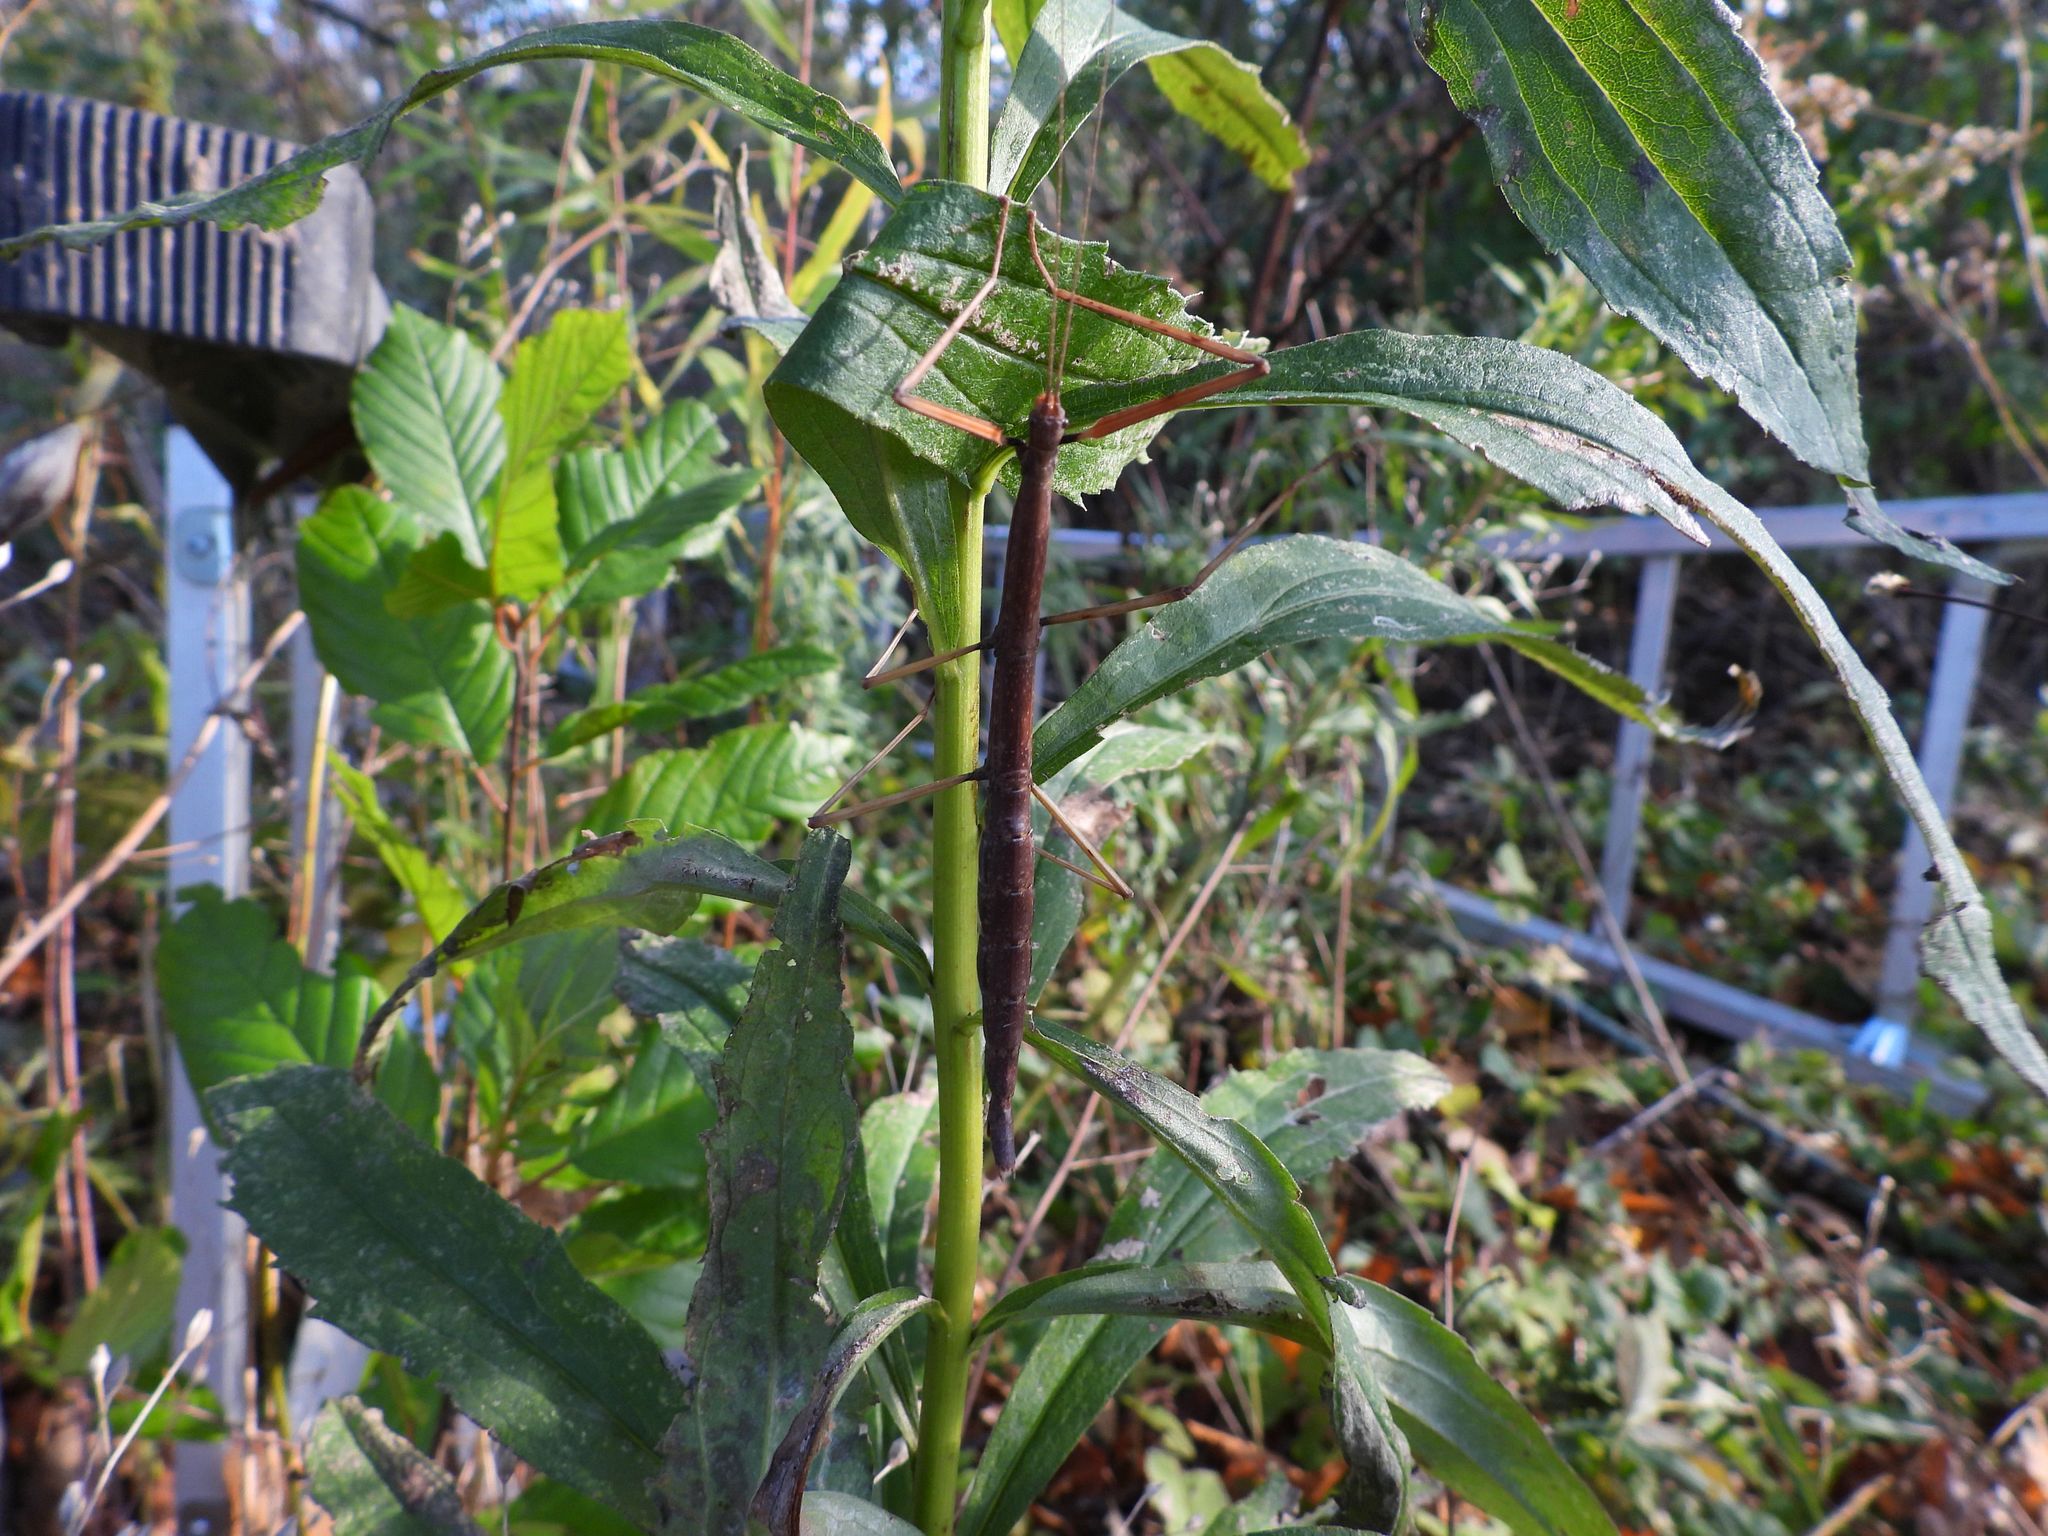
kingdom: Animalia
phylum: Arthropoda
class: Insecta
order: Phasmida
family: Diapheromeridae
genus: Diapheromera
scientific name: Diapheromera femorata
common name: Common american walkingstick
